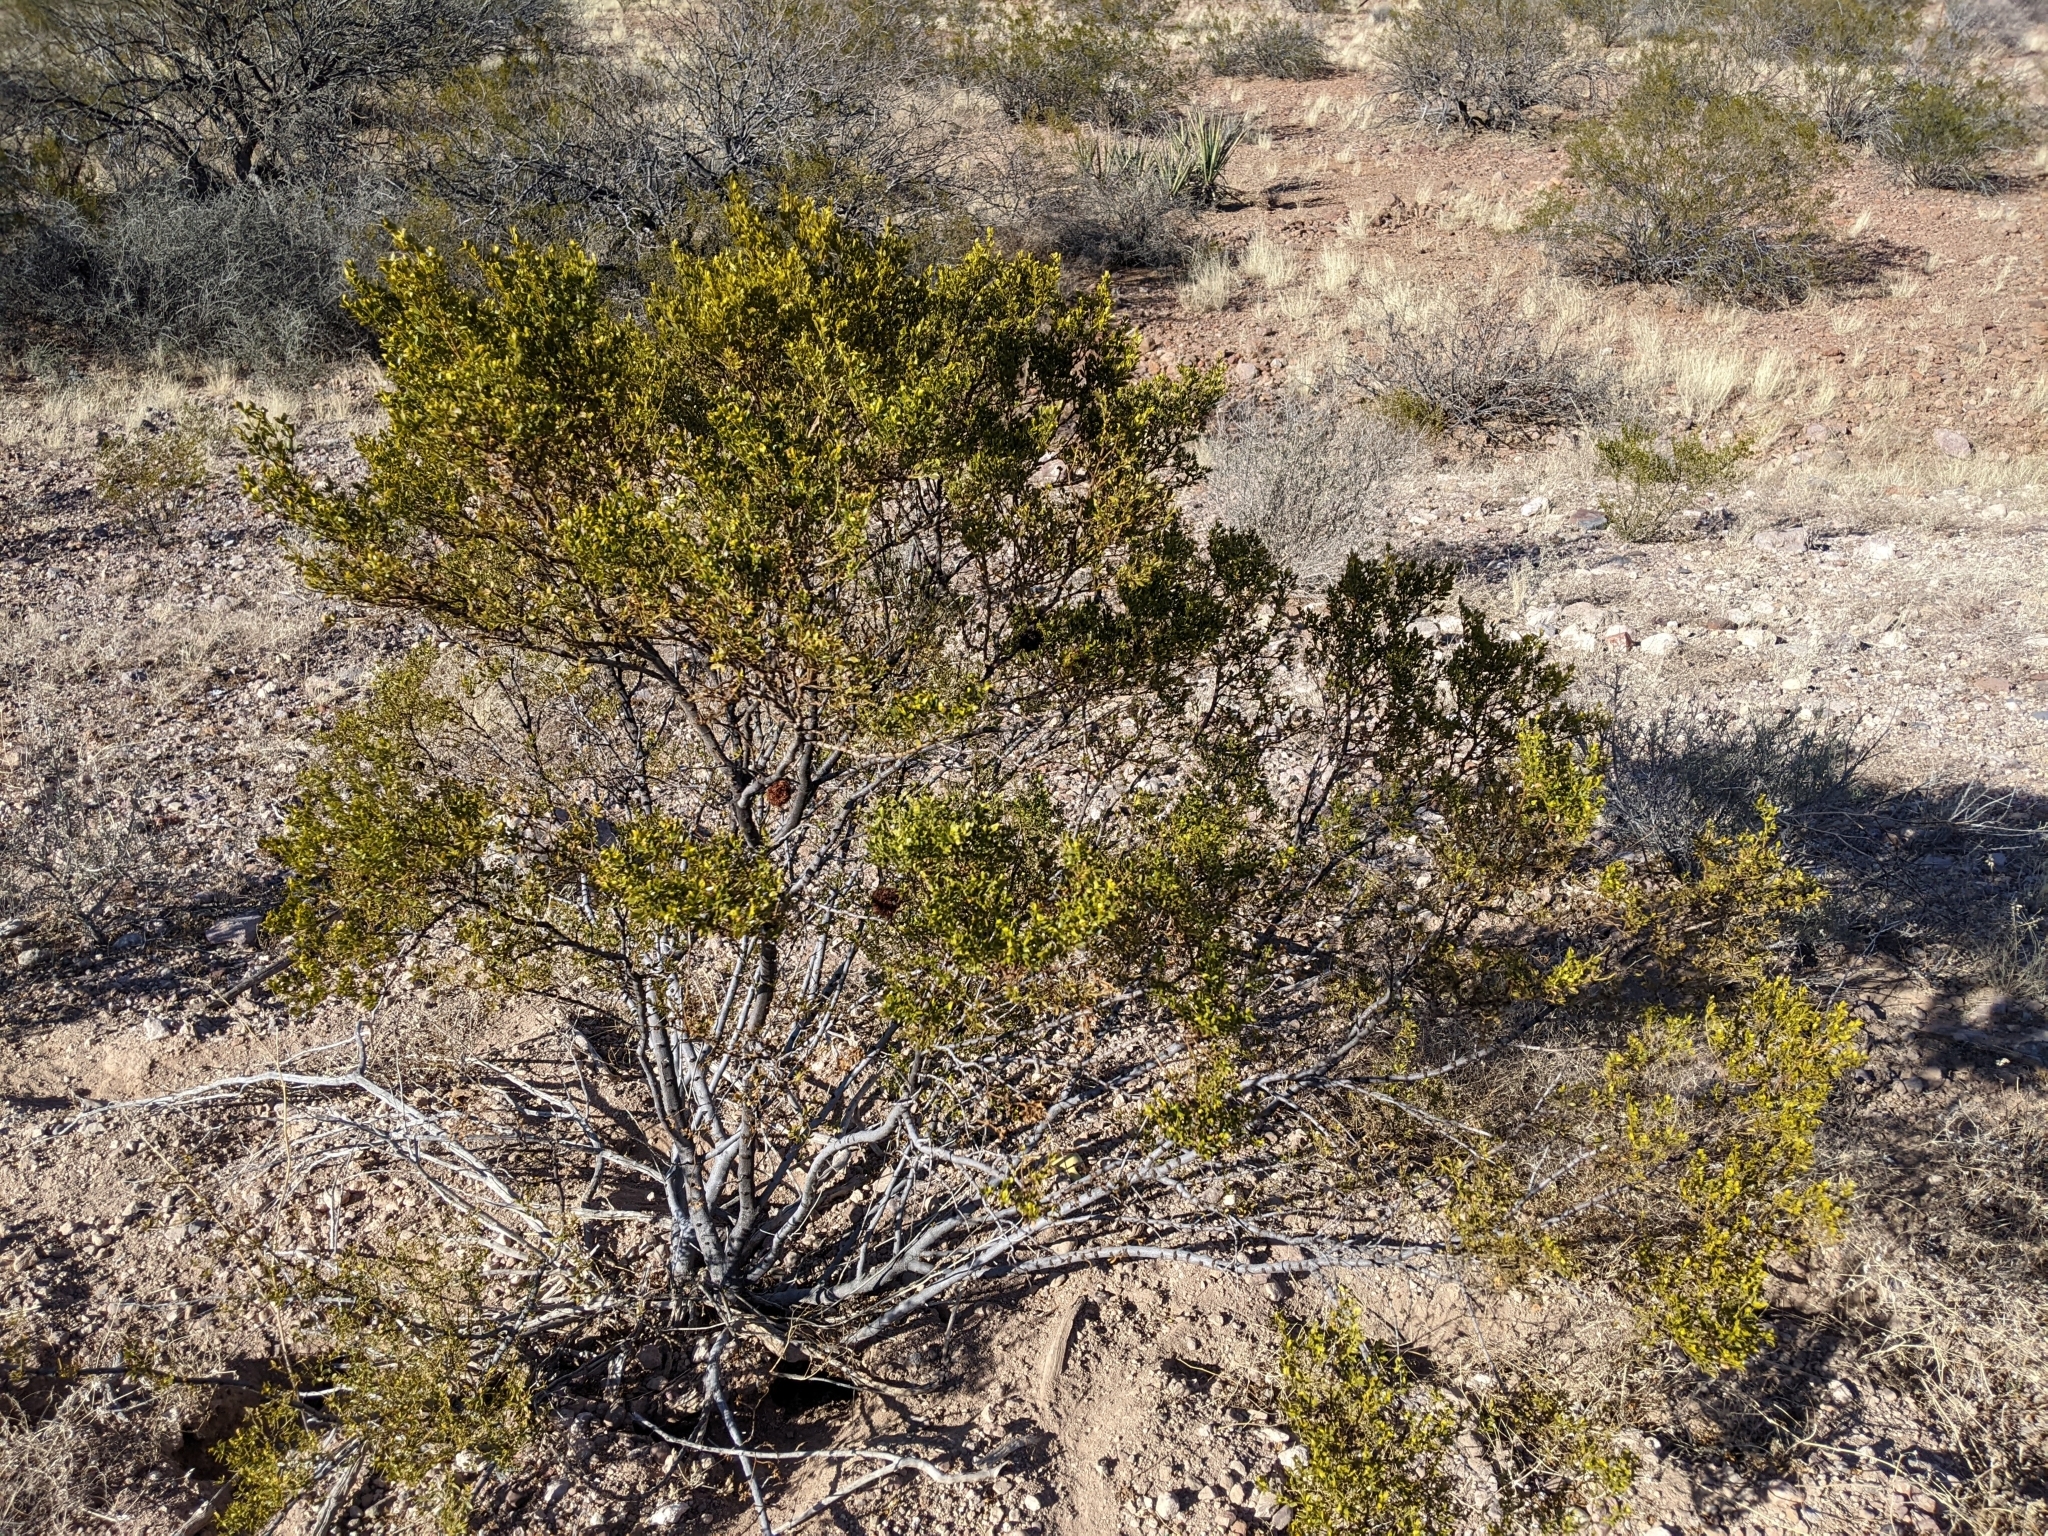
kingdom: Plantae
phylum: Tracheophyta
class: Magnoliopsida
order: Zygophyllales
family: Zygophyllaceae
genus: Larrea
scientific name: Larrea tridentata
